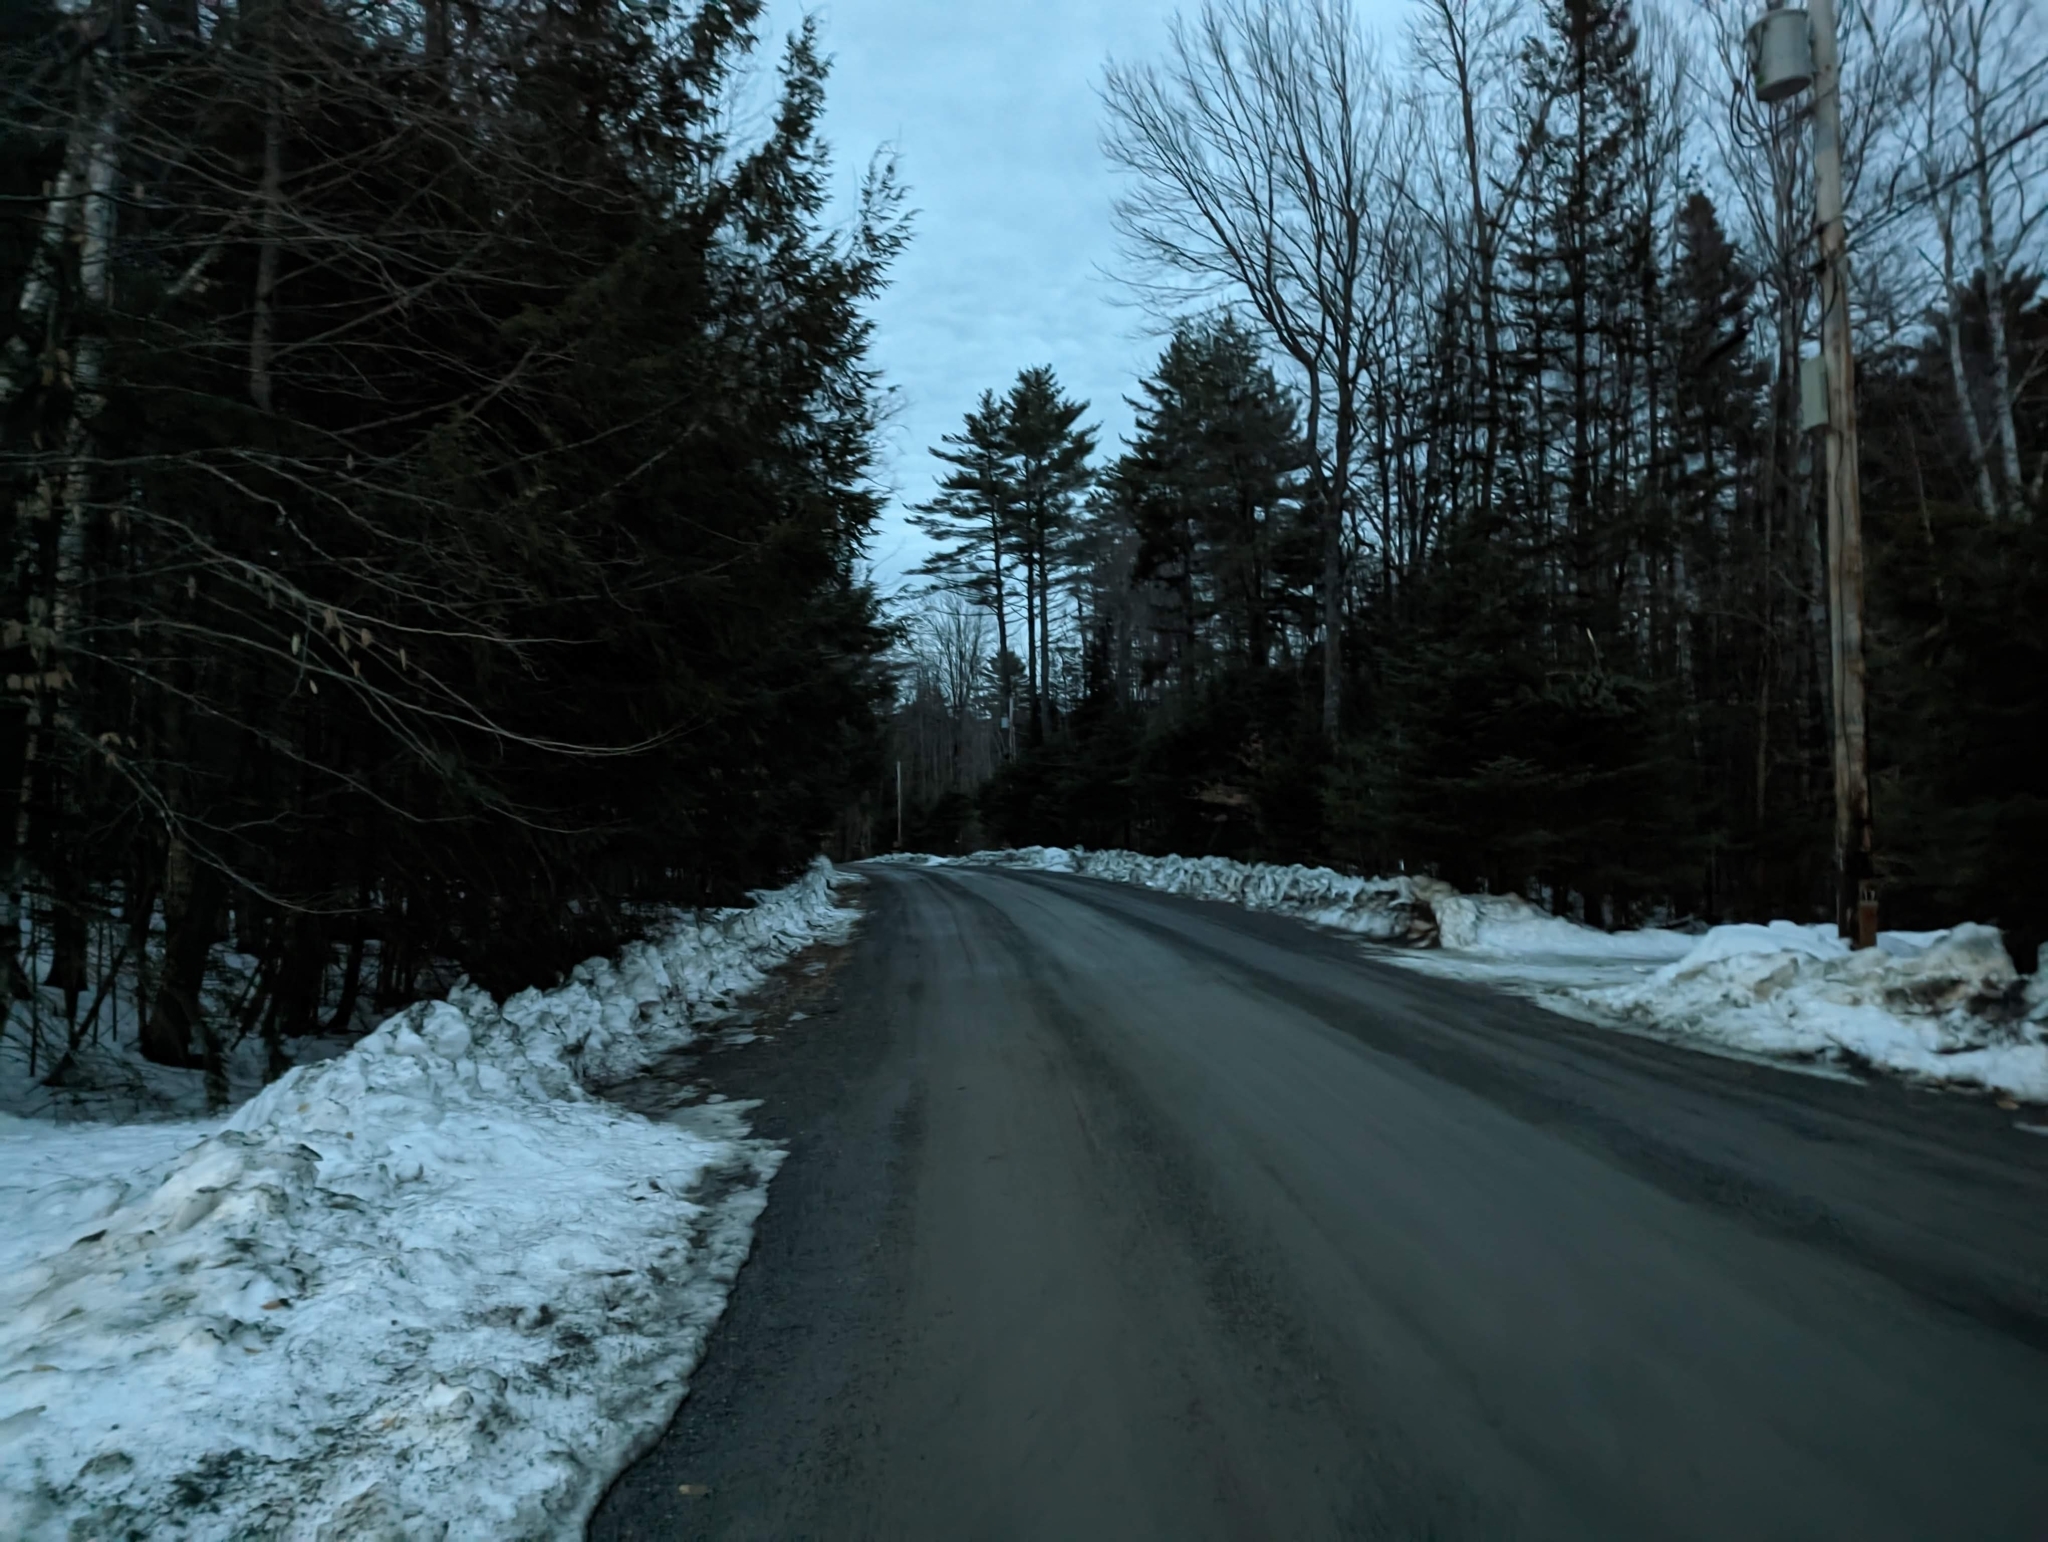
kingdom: Plantae
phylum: Tracheophyta
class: Pinopsida
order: Pinales
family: Pinaceae
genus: Pinus
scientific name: Pinus strobus
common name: Weymouth pine
